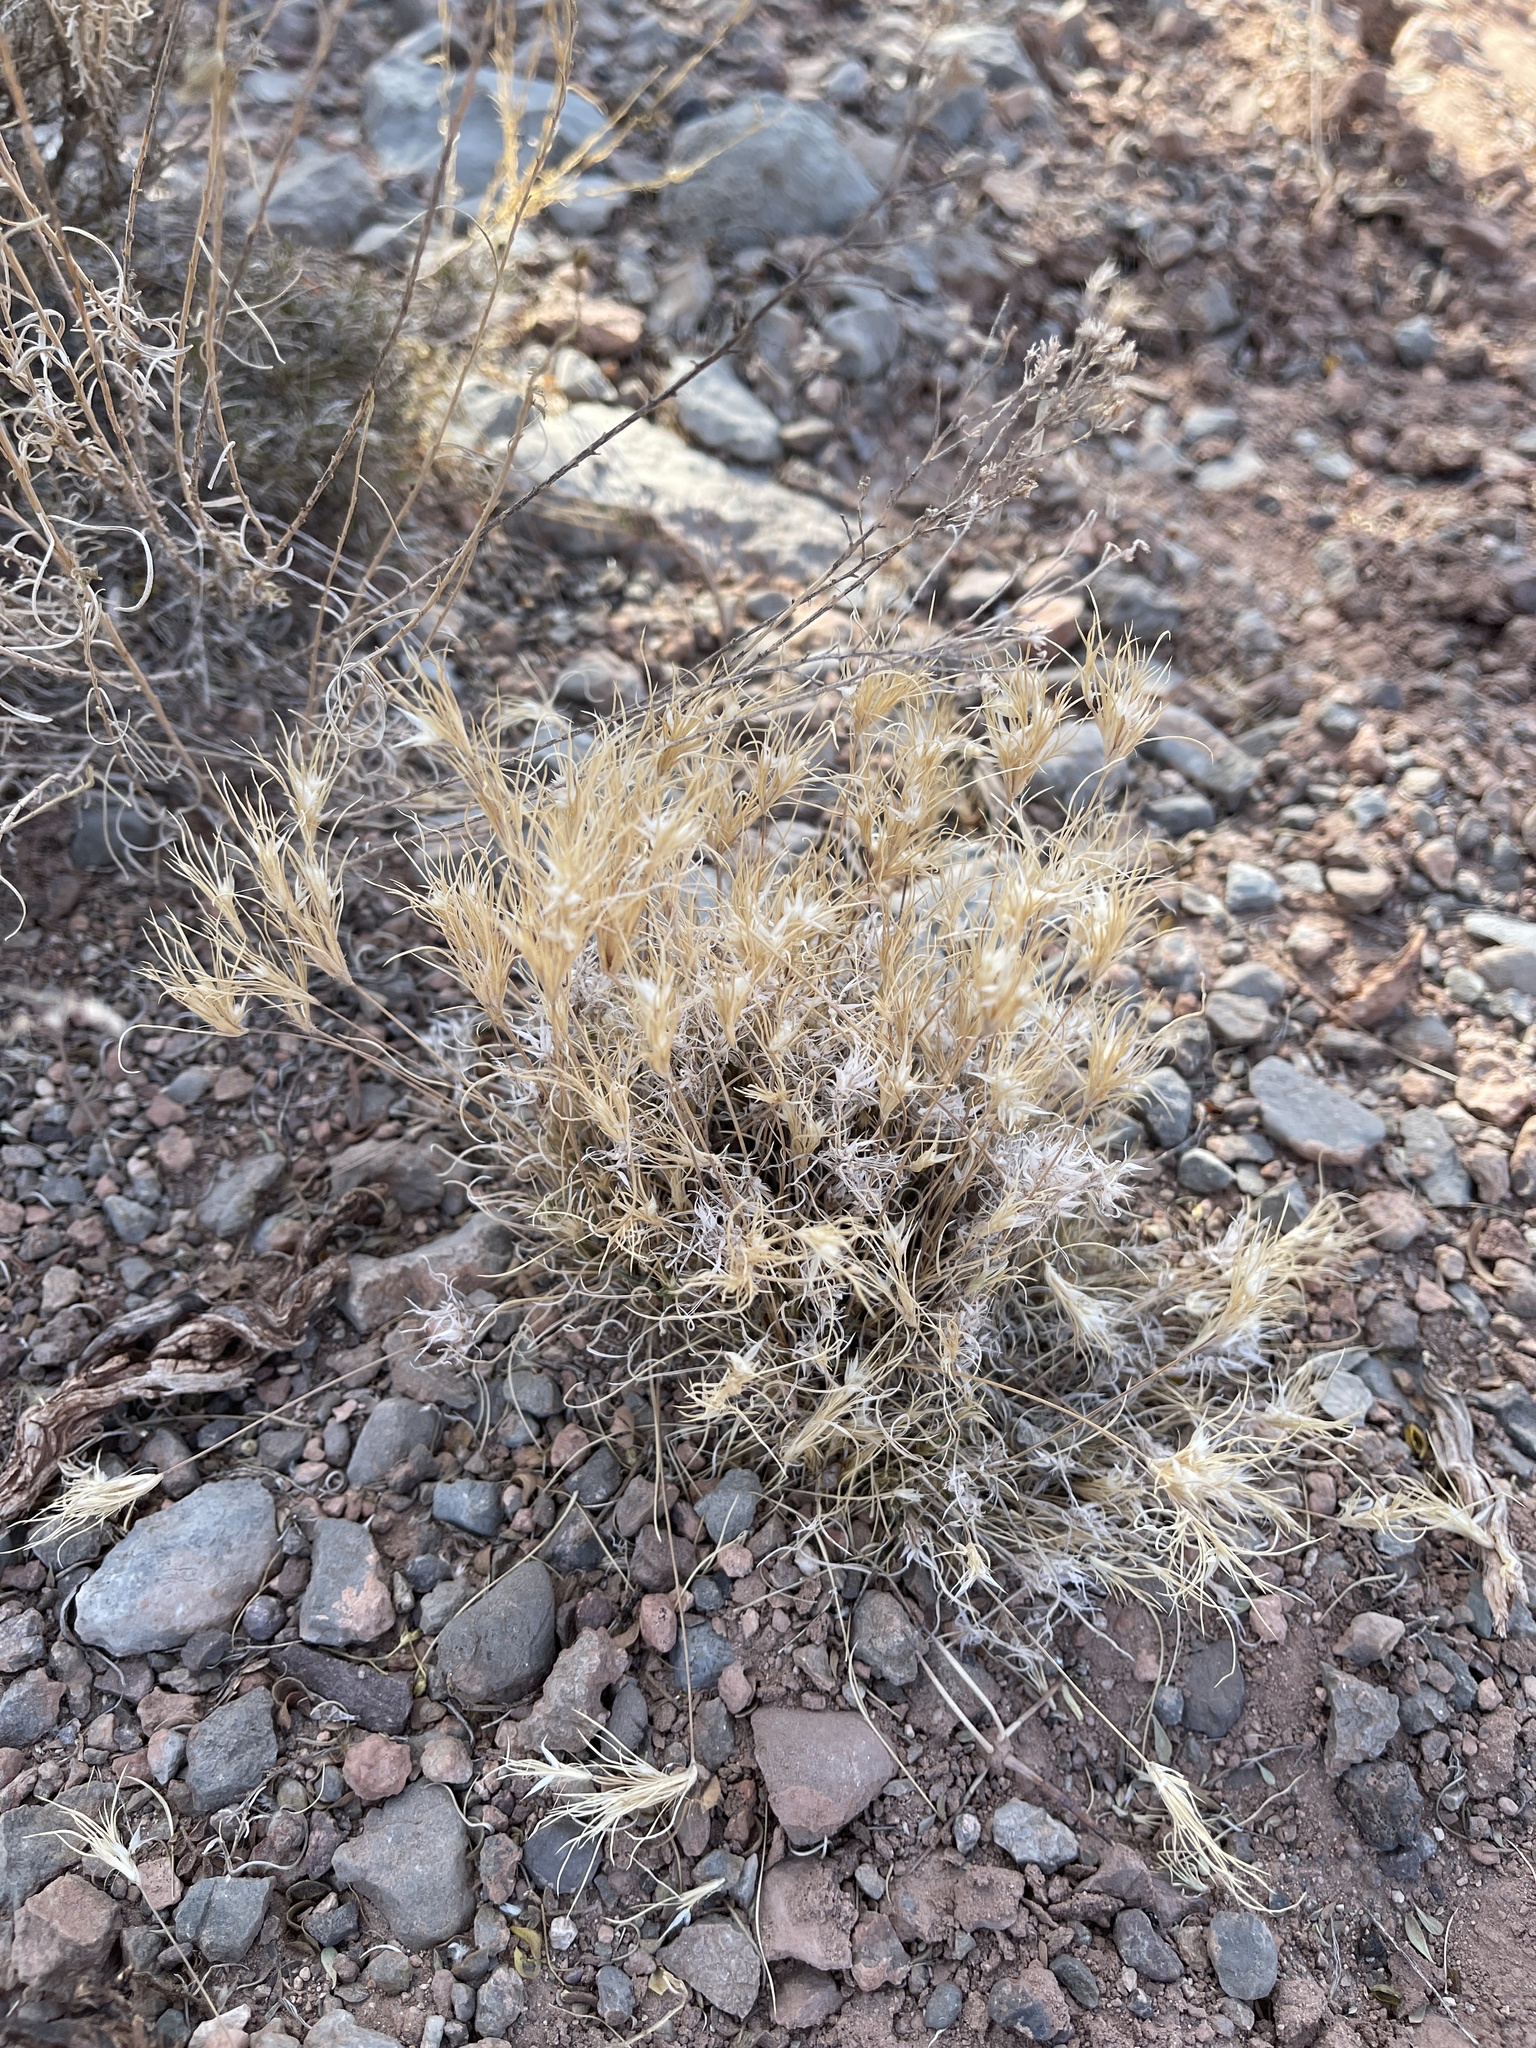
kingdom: Plantae
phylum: Tracheophyta
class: Liliopsida
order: Poales
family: Poaceae
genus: Dasyochloa
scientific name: Dasyochloa pulchella
